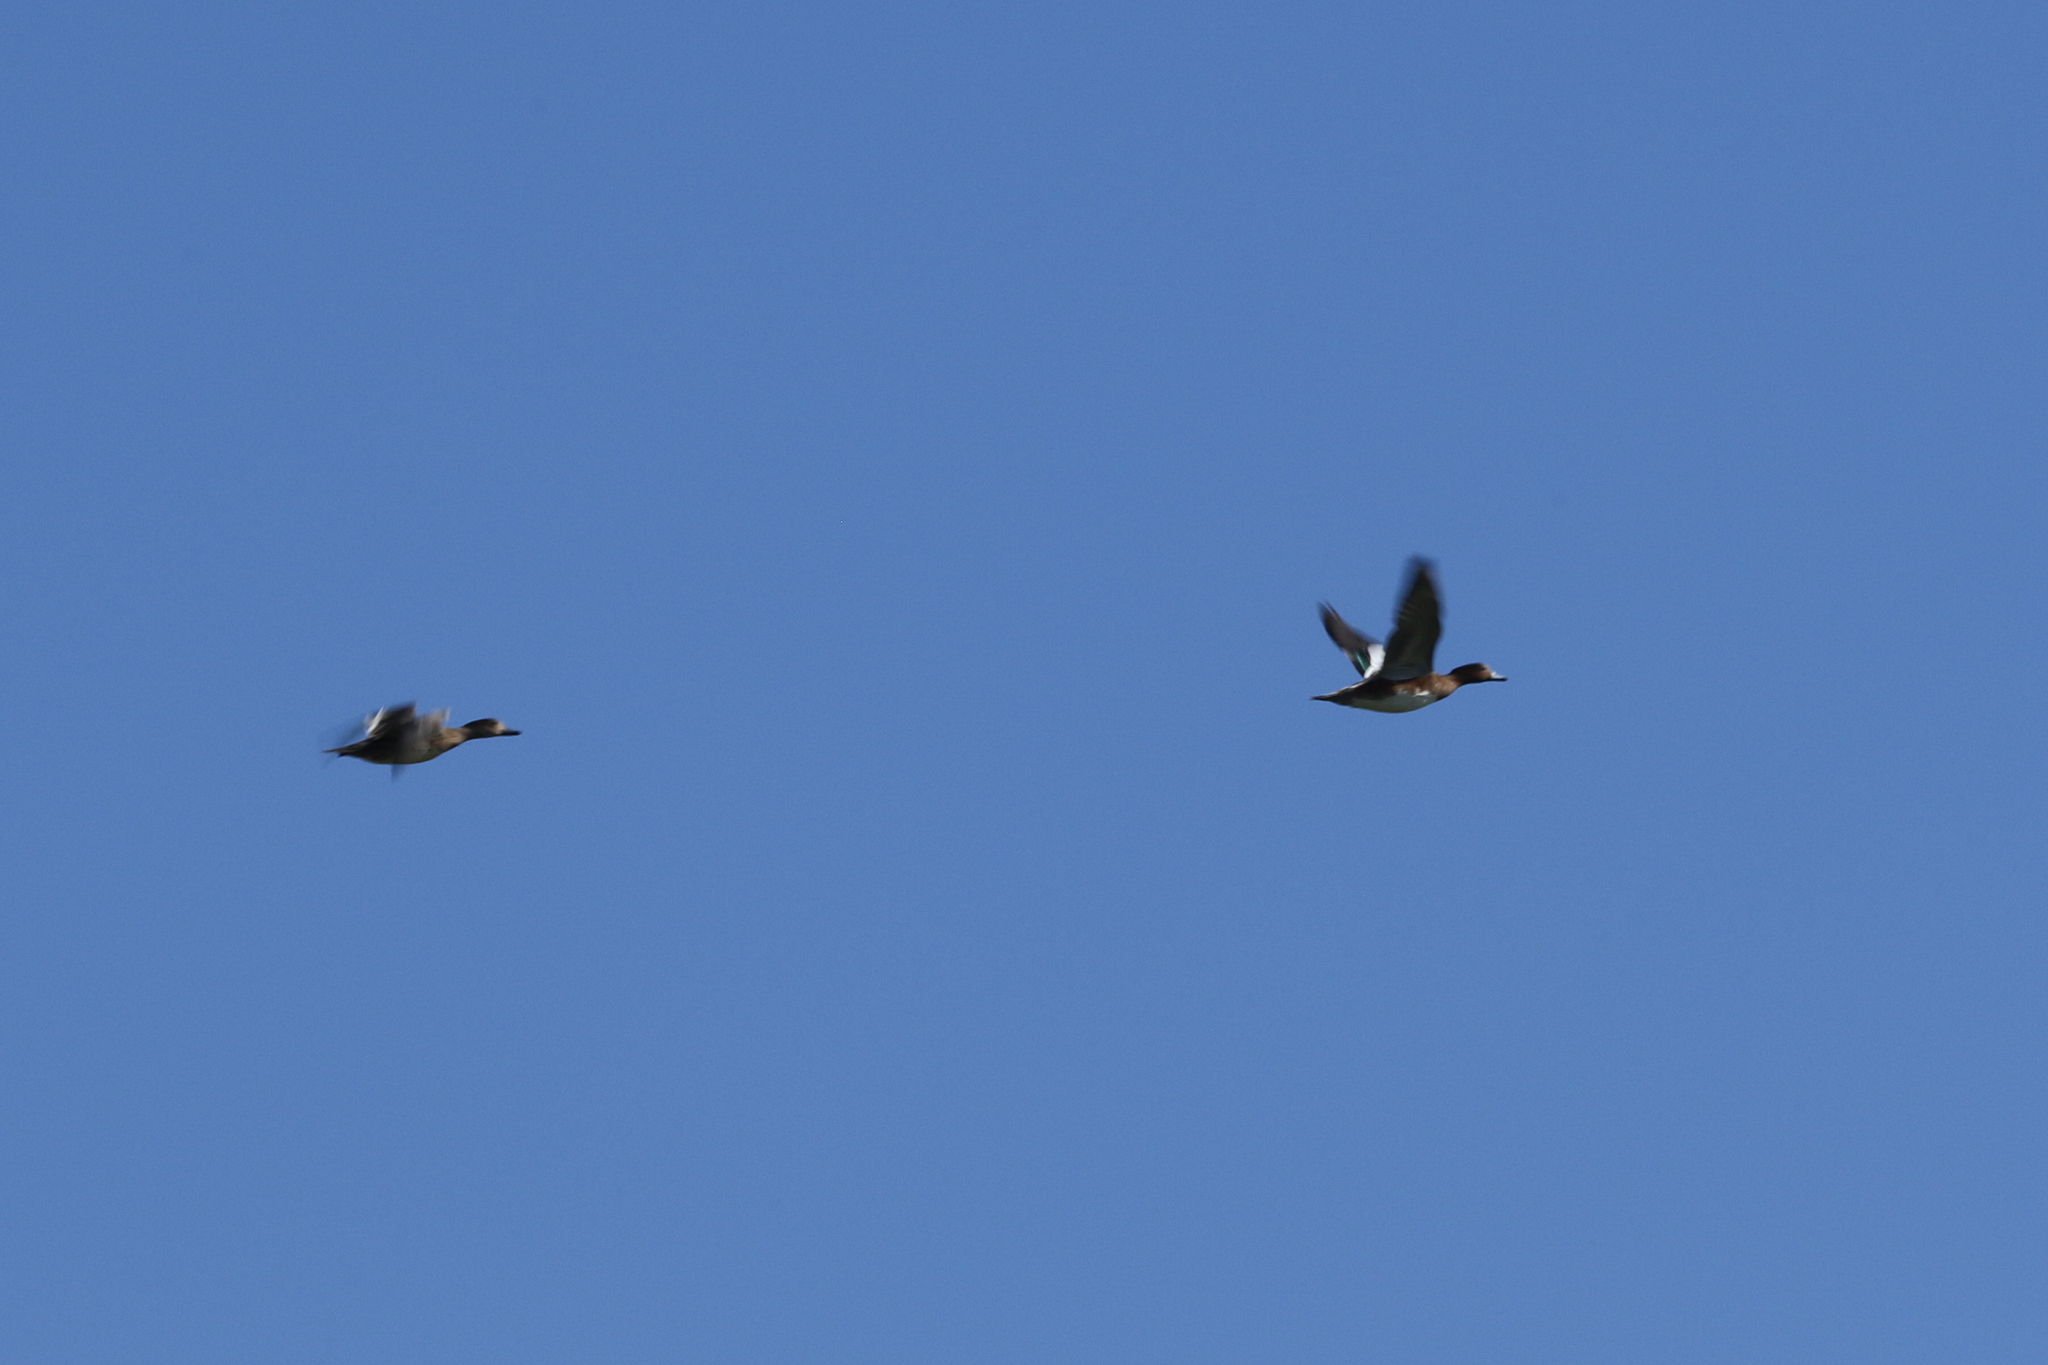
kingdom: Animalia
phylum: Chordata
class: Aves
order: Anseriformes
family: Anatidae
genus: Mareca
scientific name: Mareca penelope
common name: Eurasian wigeon
